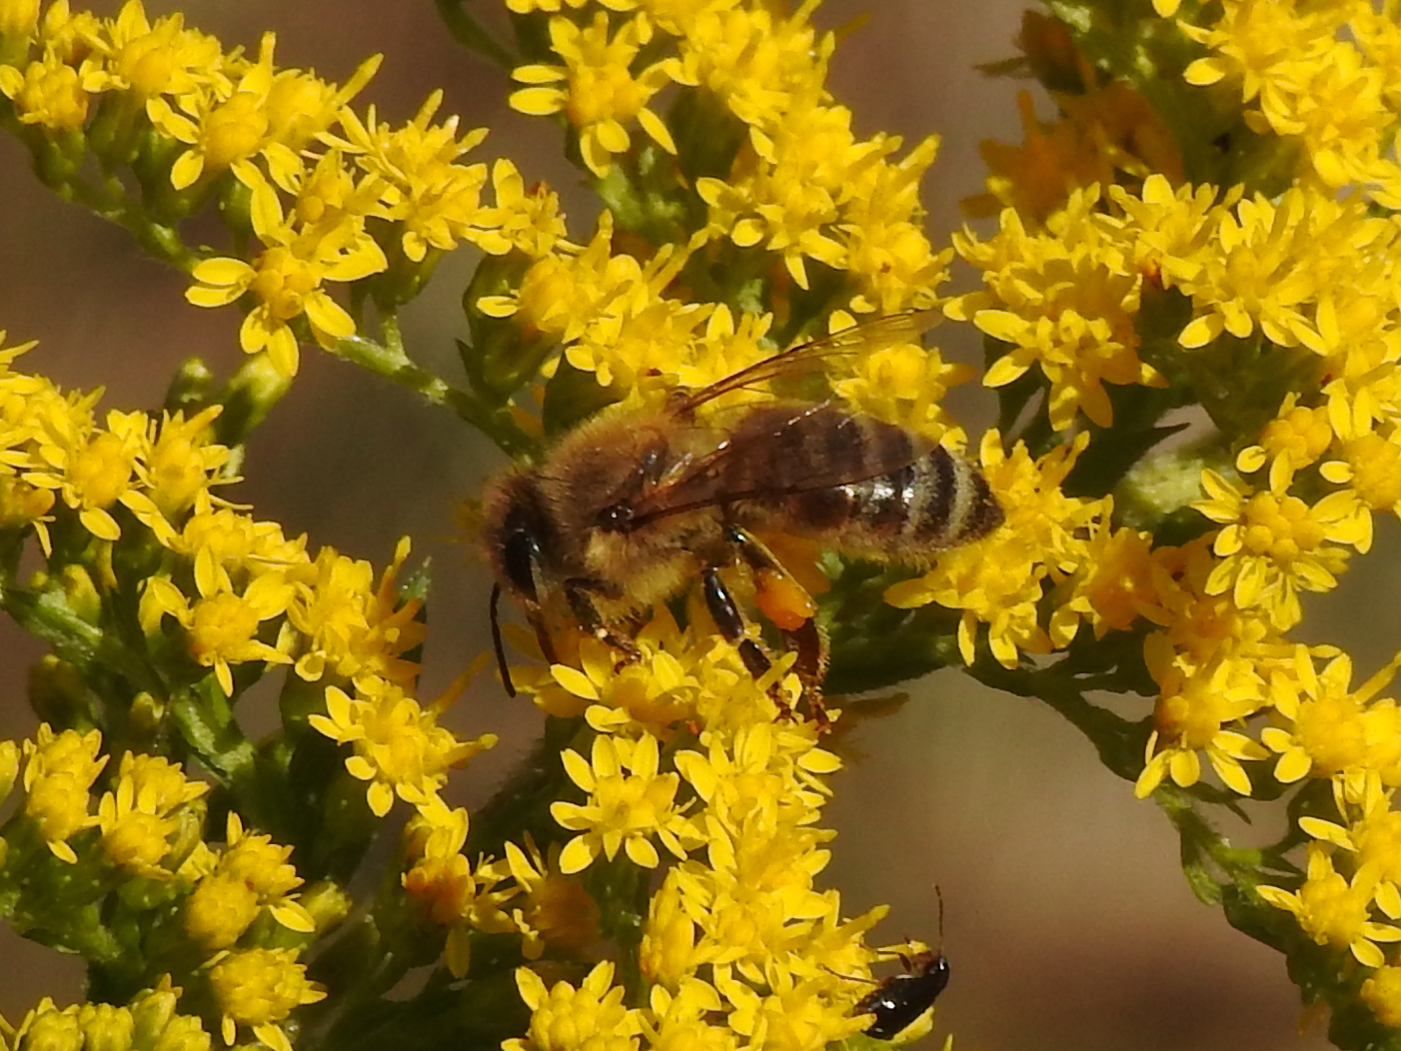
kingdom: Animalia
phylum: Arthropoda
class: Insecta
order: Hymenoptera
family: Apidae
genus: Apis
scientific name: Apis mellifera
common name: Honey bee
